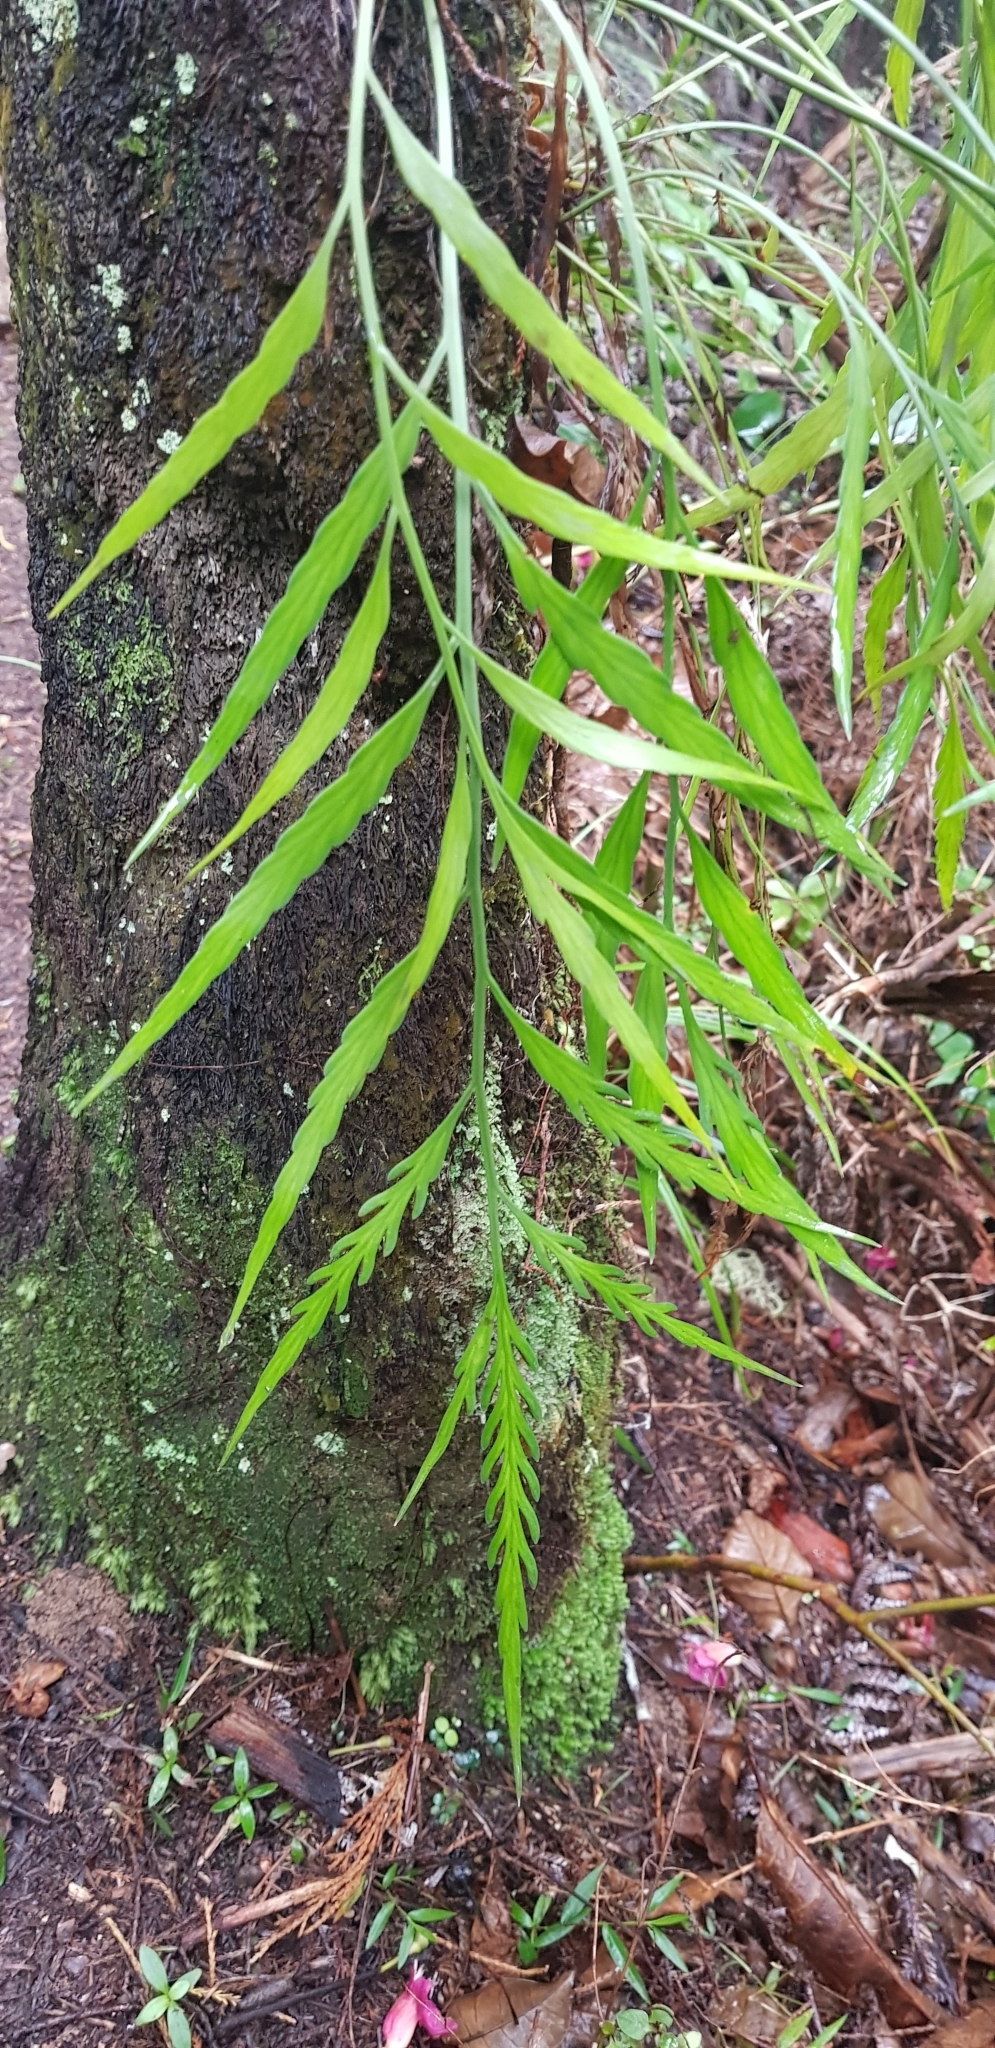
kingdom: Plantae
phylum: Tracheophyta
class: Polypodiopsida
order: Polypodiales
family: Aspleniaceae
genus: Asplenium
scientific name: Asplenium flaccidum
